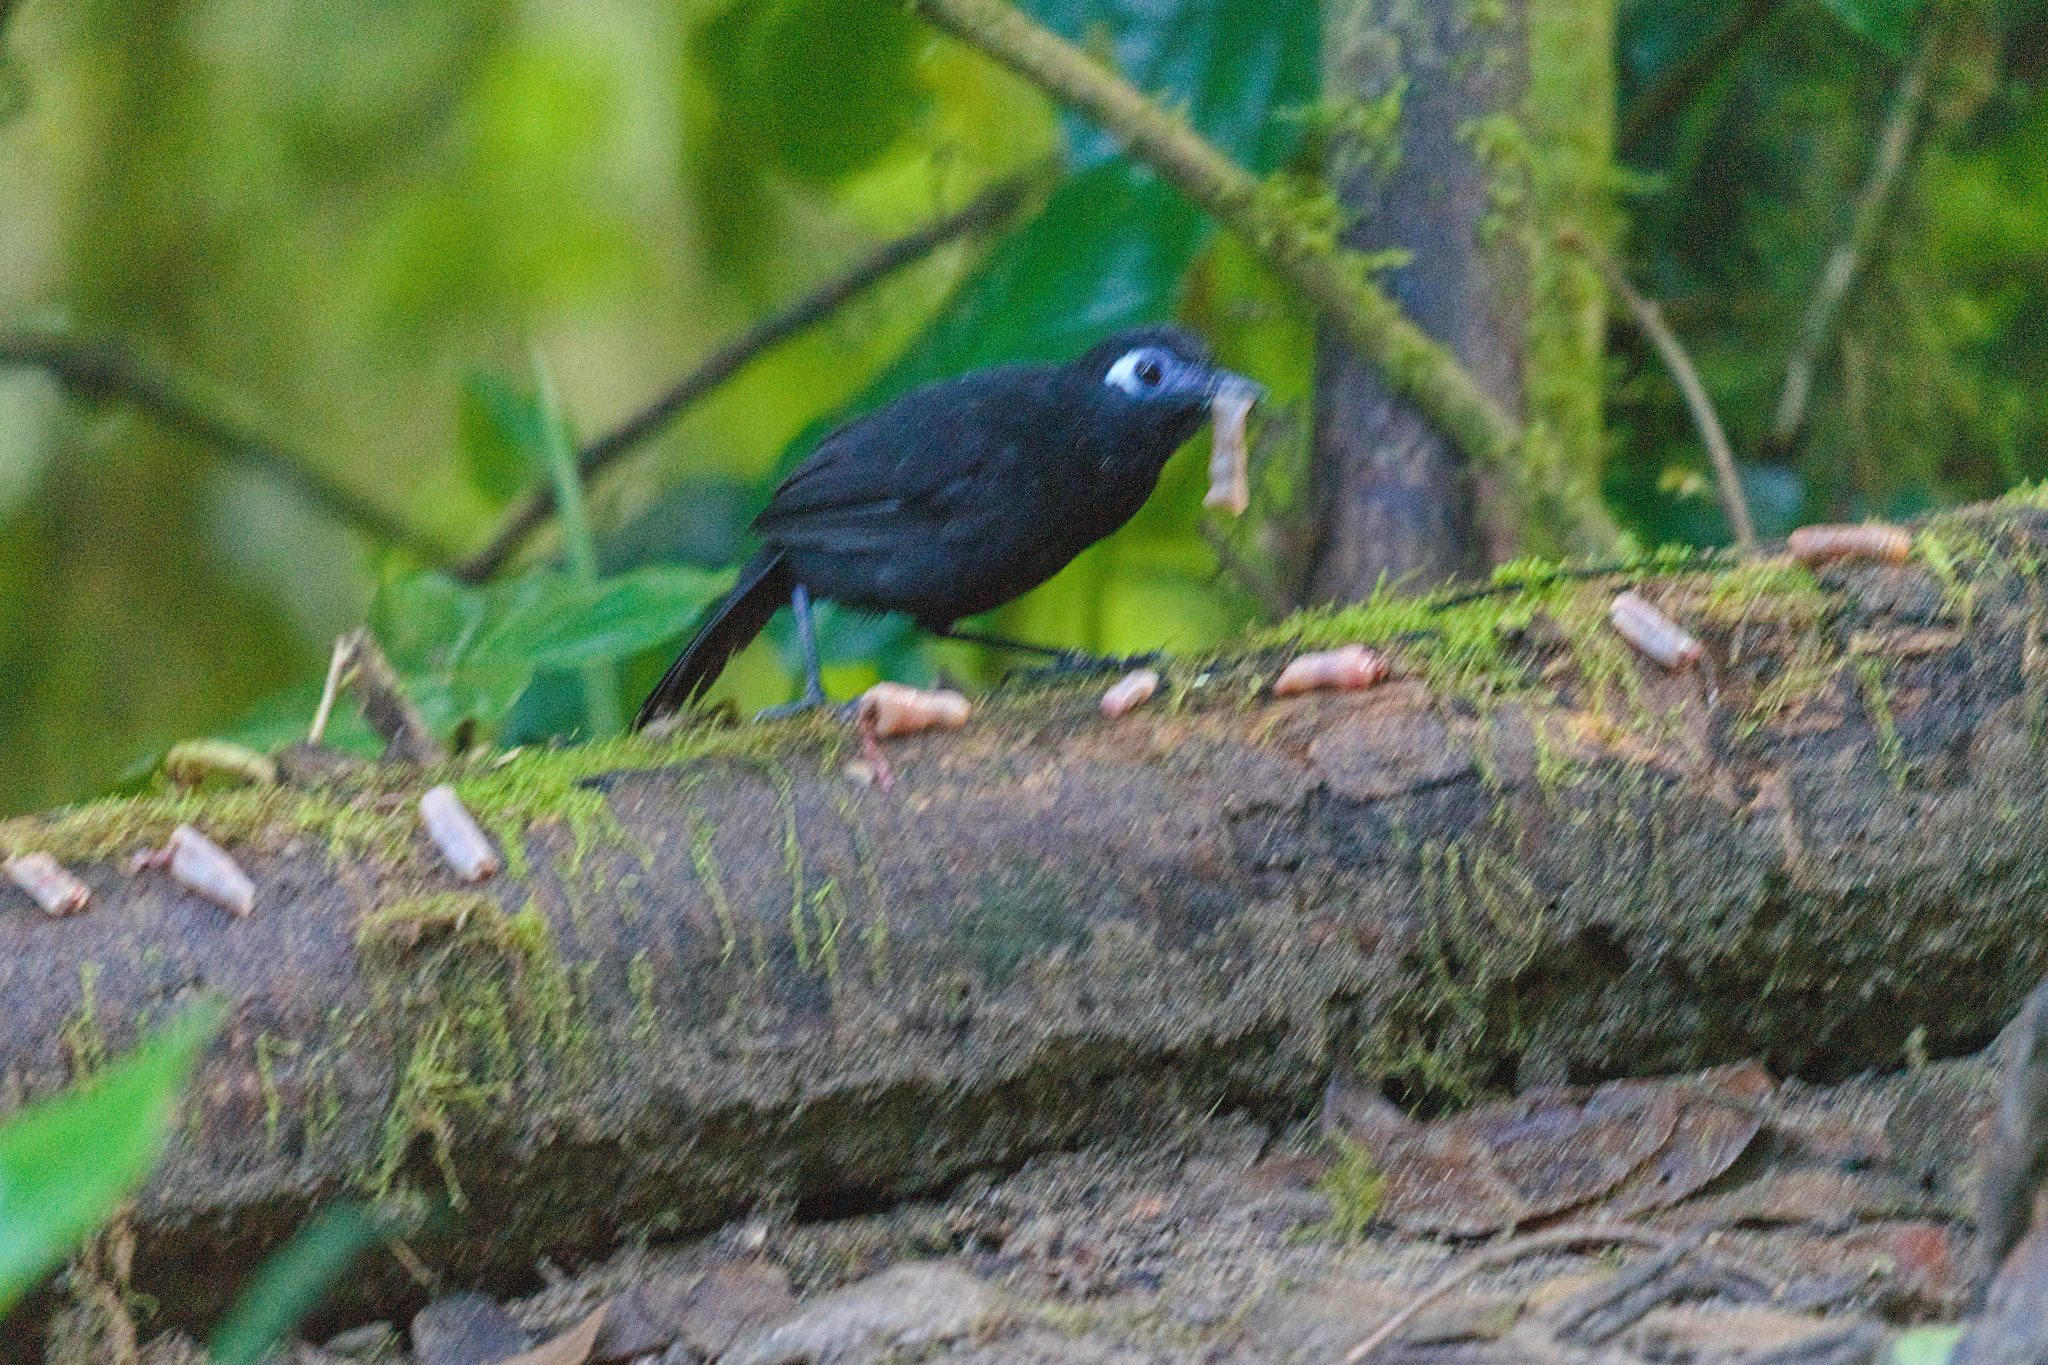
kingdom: Animalia
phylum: Chordata
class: Aves
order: Passeriformes
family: Thamnophilidae
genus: Hafferia
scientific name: Hafferia zeledoni
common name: Zeledon's antbird
